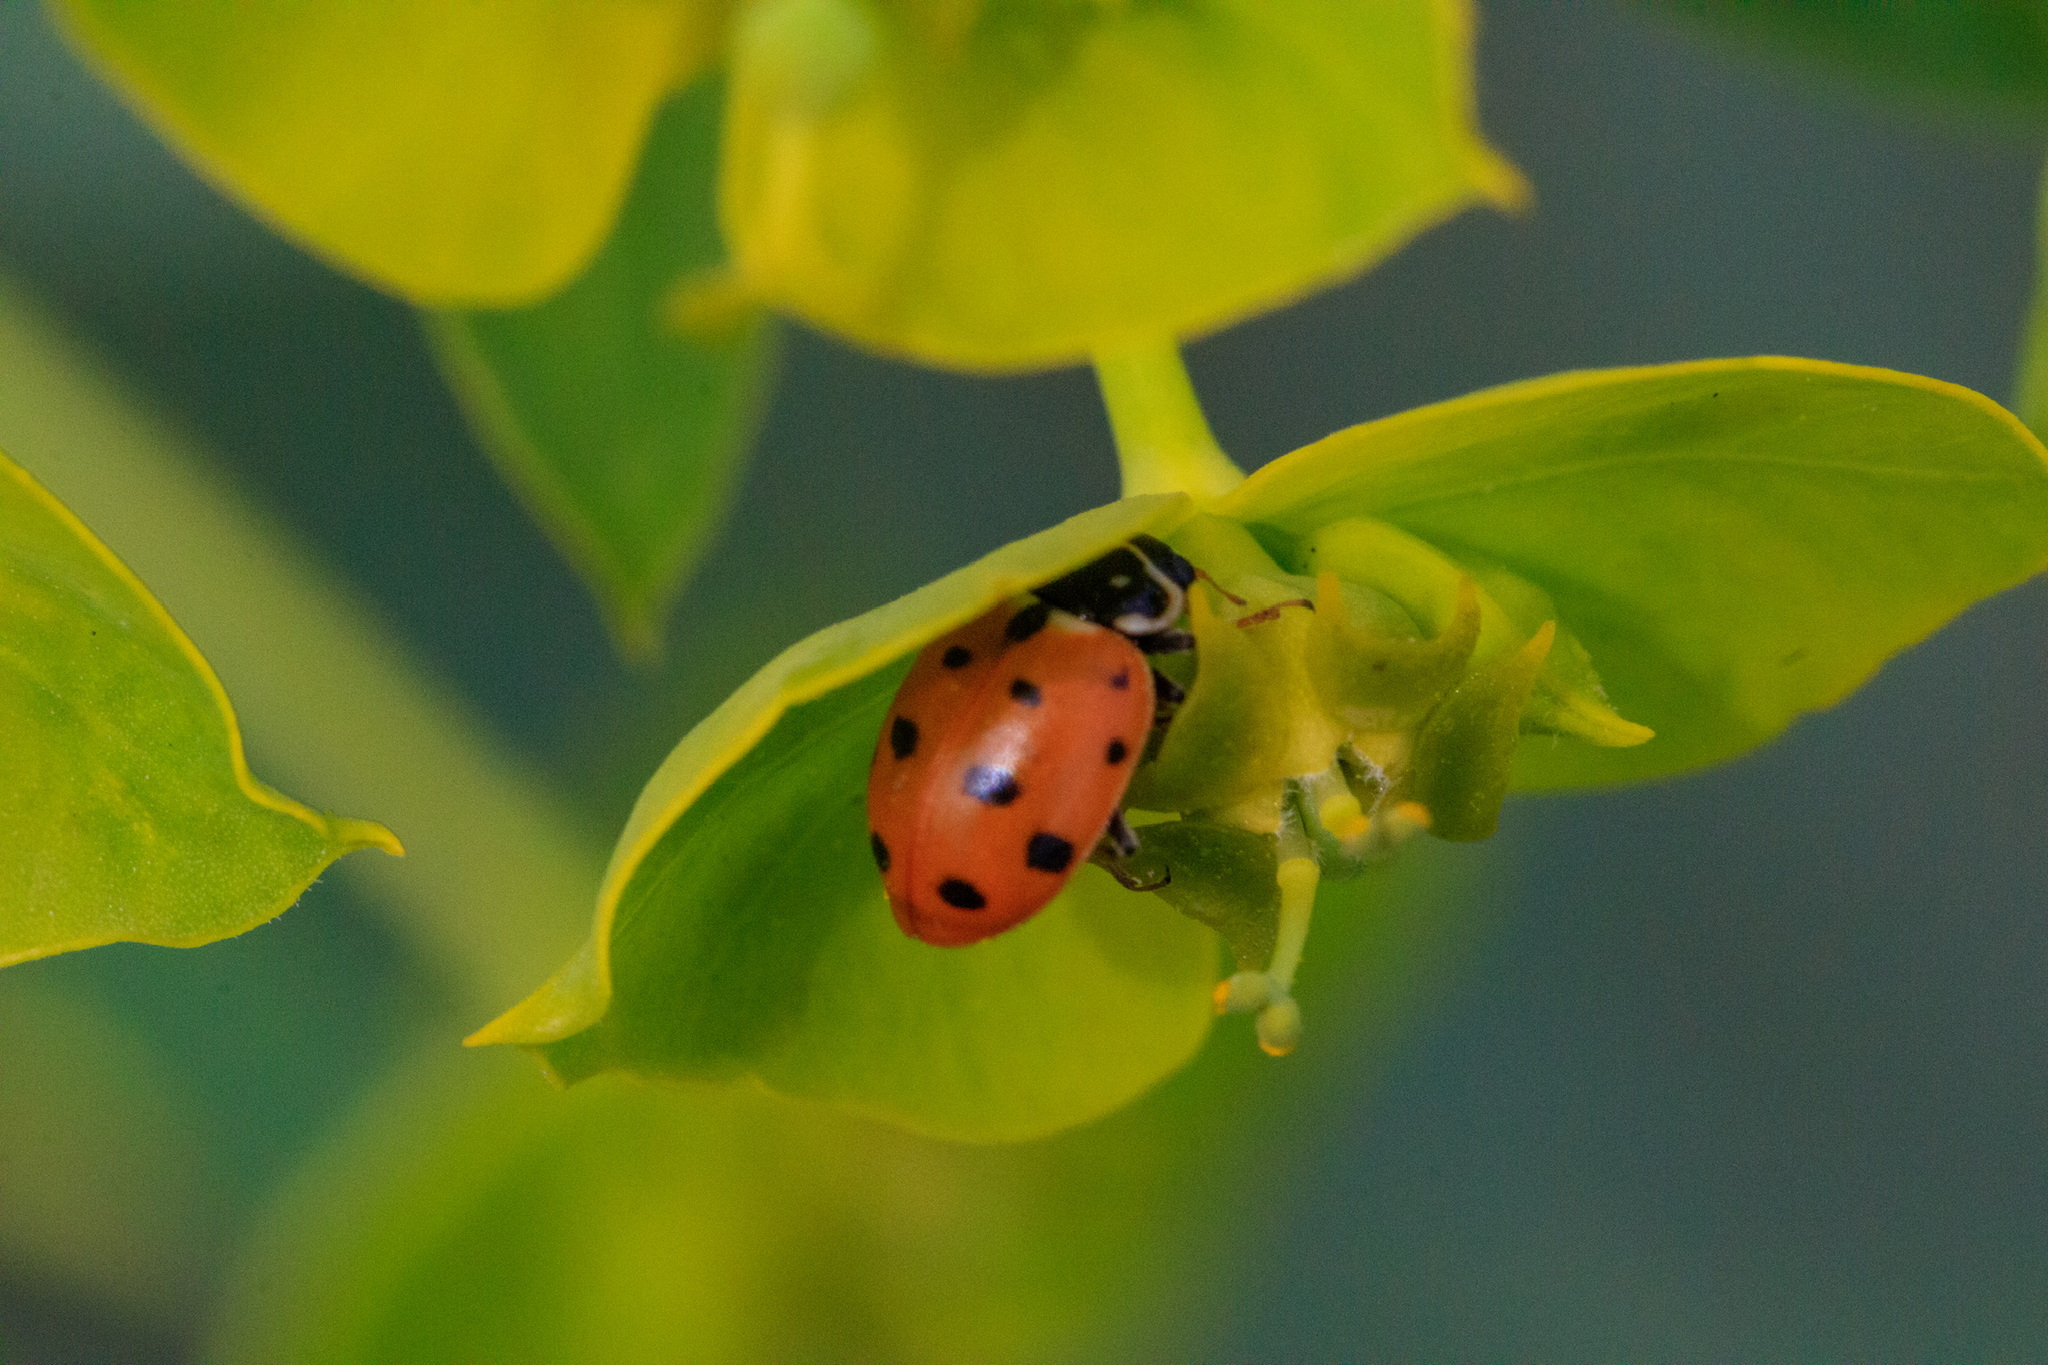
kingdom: Animalia
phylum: Arthropoda
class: Insecta
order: Coleoptera
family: Coccinellidae
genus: Hippodamia
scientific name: Hippodamia variegata
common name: Ladybird beetle
